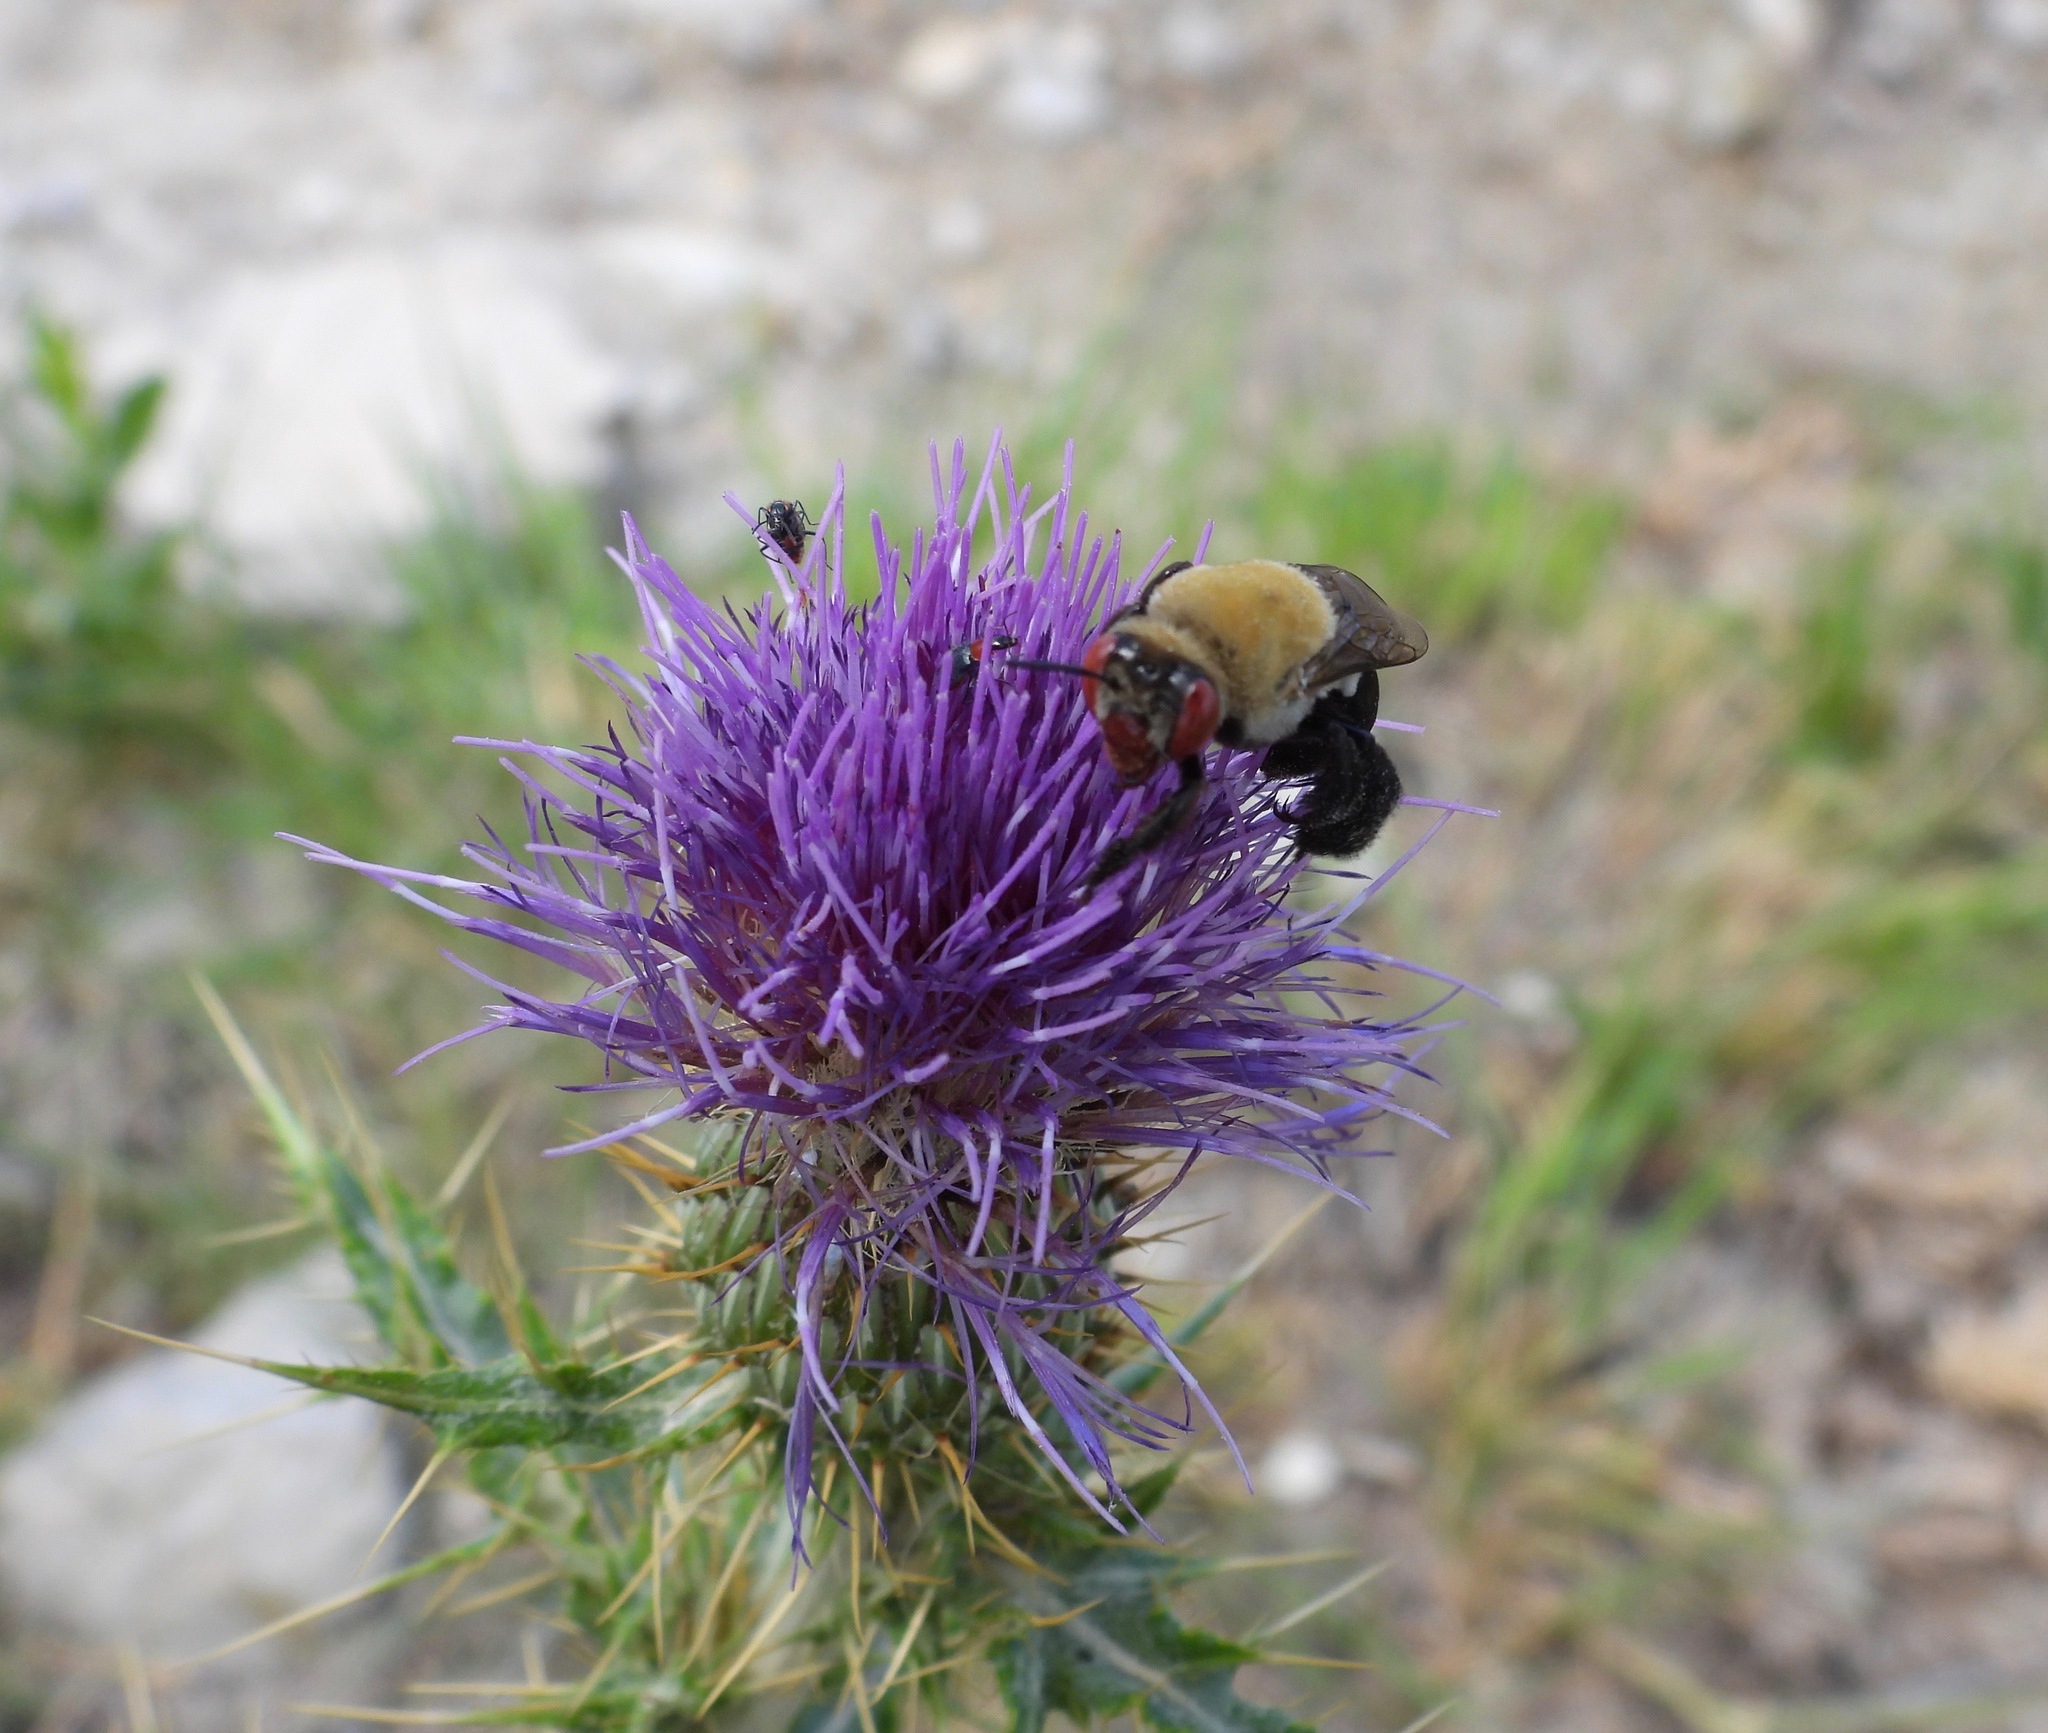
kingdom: Animalia
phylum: Arthropoda
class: Insecta
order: Hymenoptera
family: Apidae
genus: Centris
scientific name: Centris caesalpiniae
